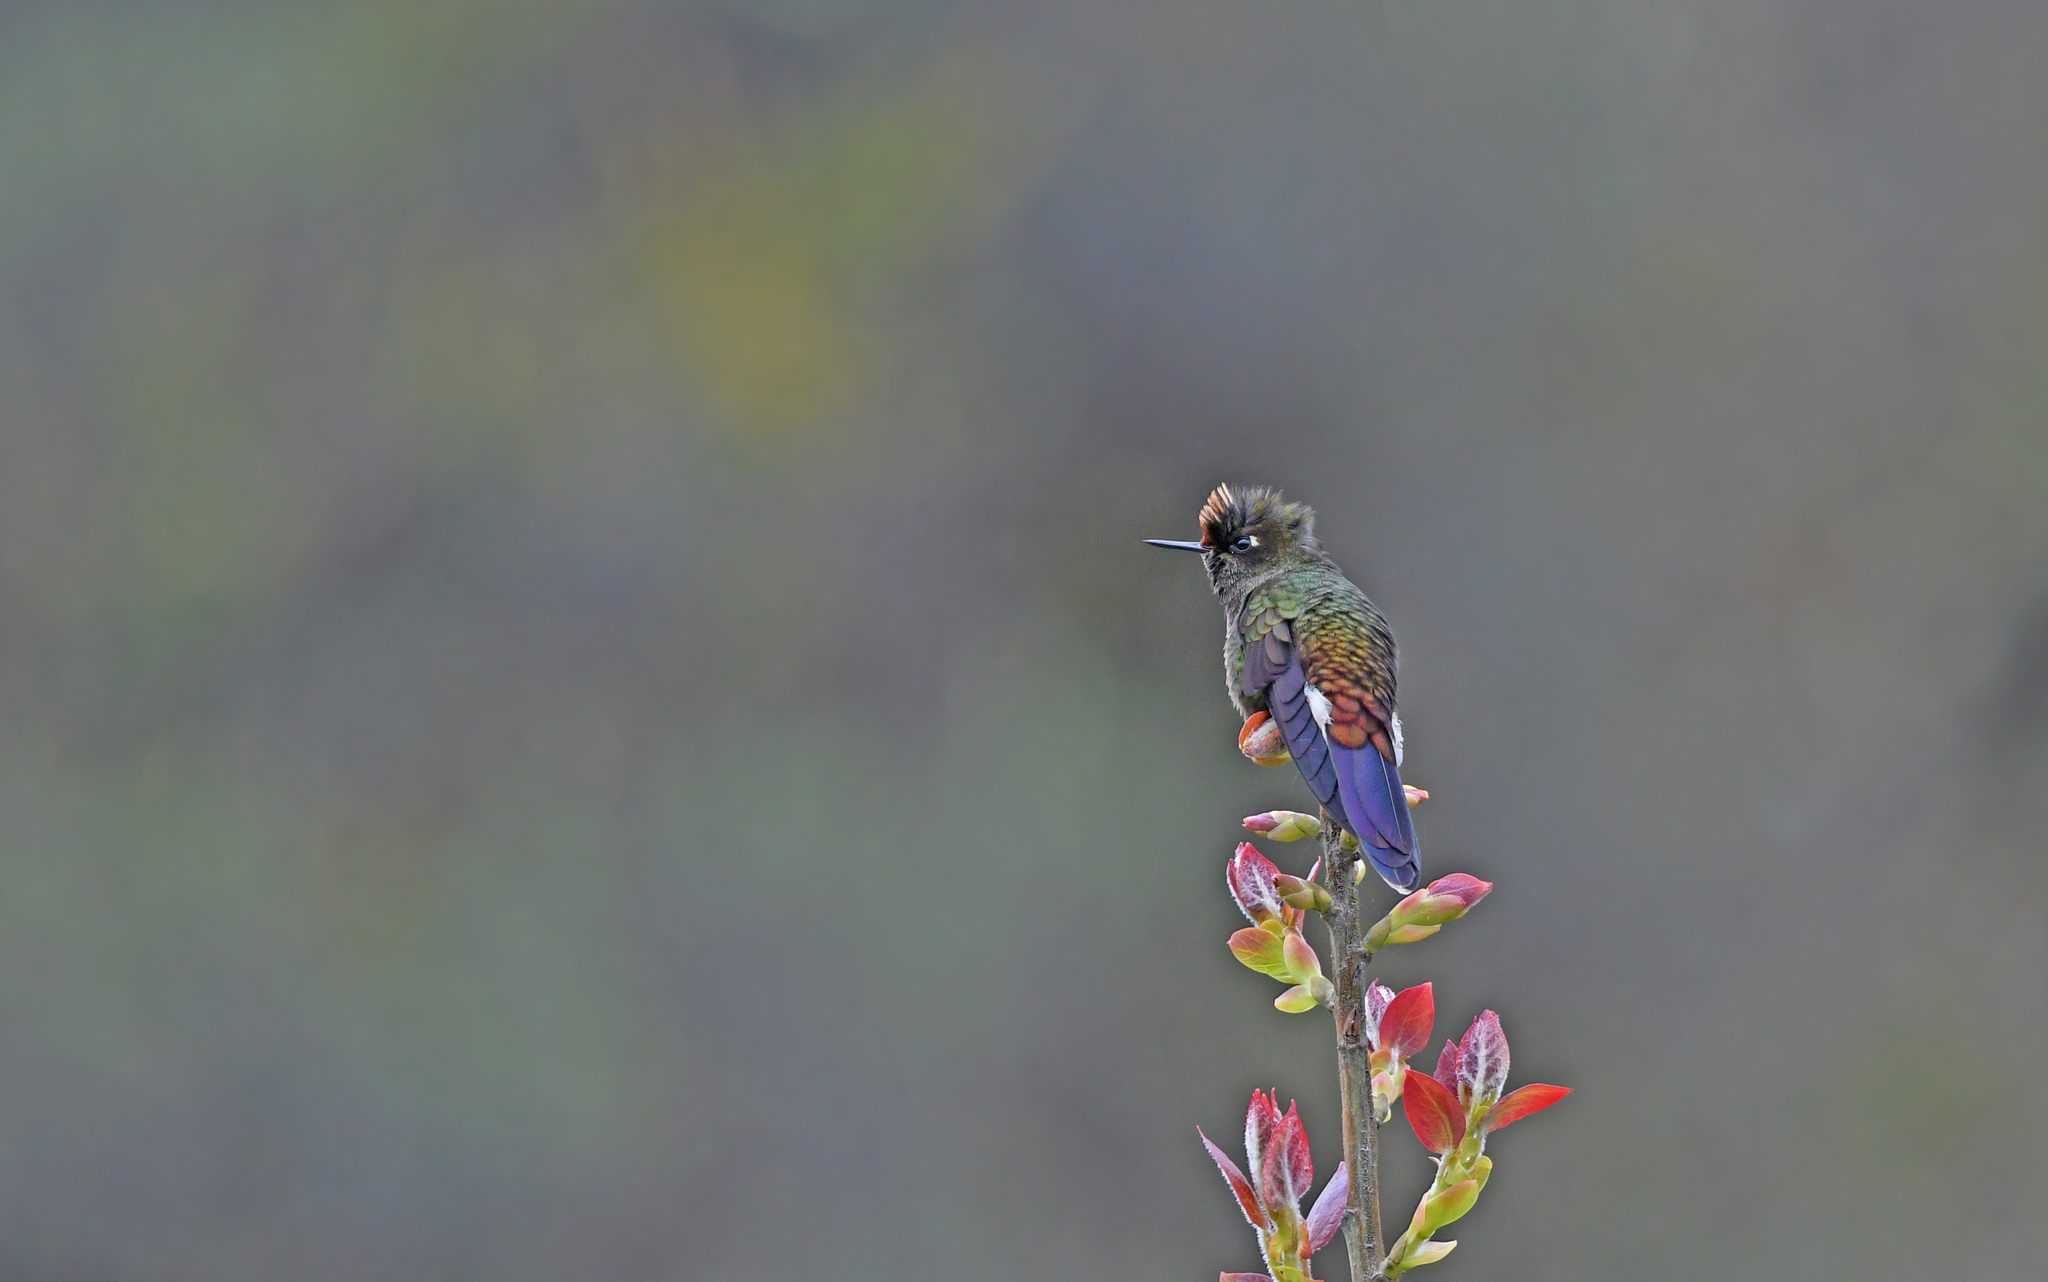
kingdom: Animalia
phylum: Chordata
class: Aves
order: Apodiformes
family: Trochilidae
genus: Chalcostigma
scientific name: Chalcostigma herrani
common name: Rainbow-bearded thornbill
